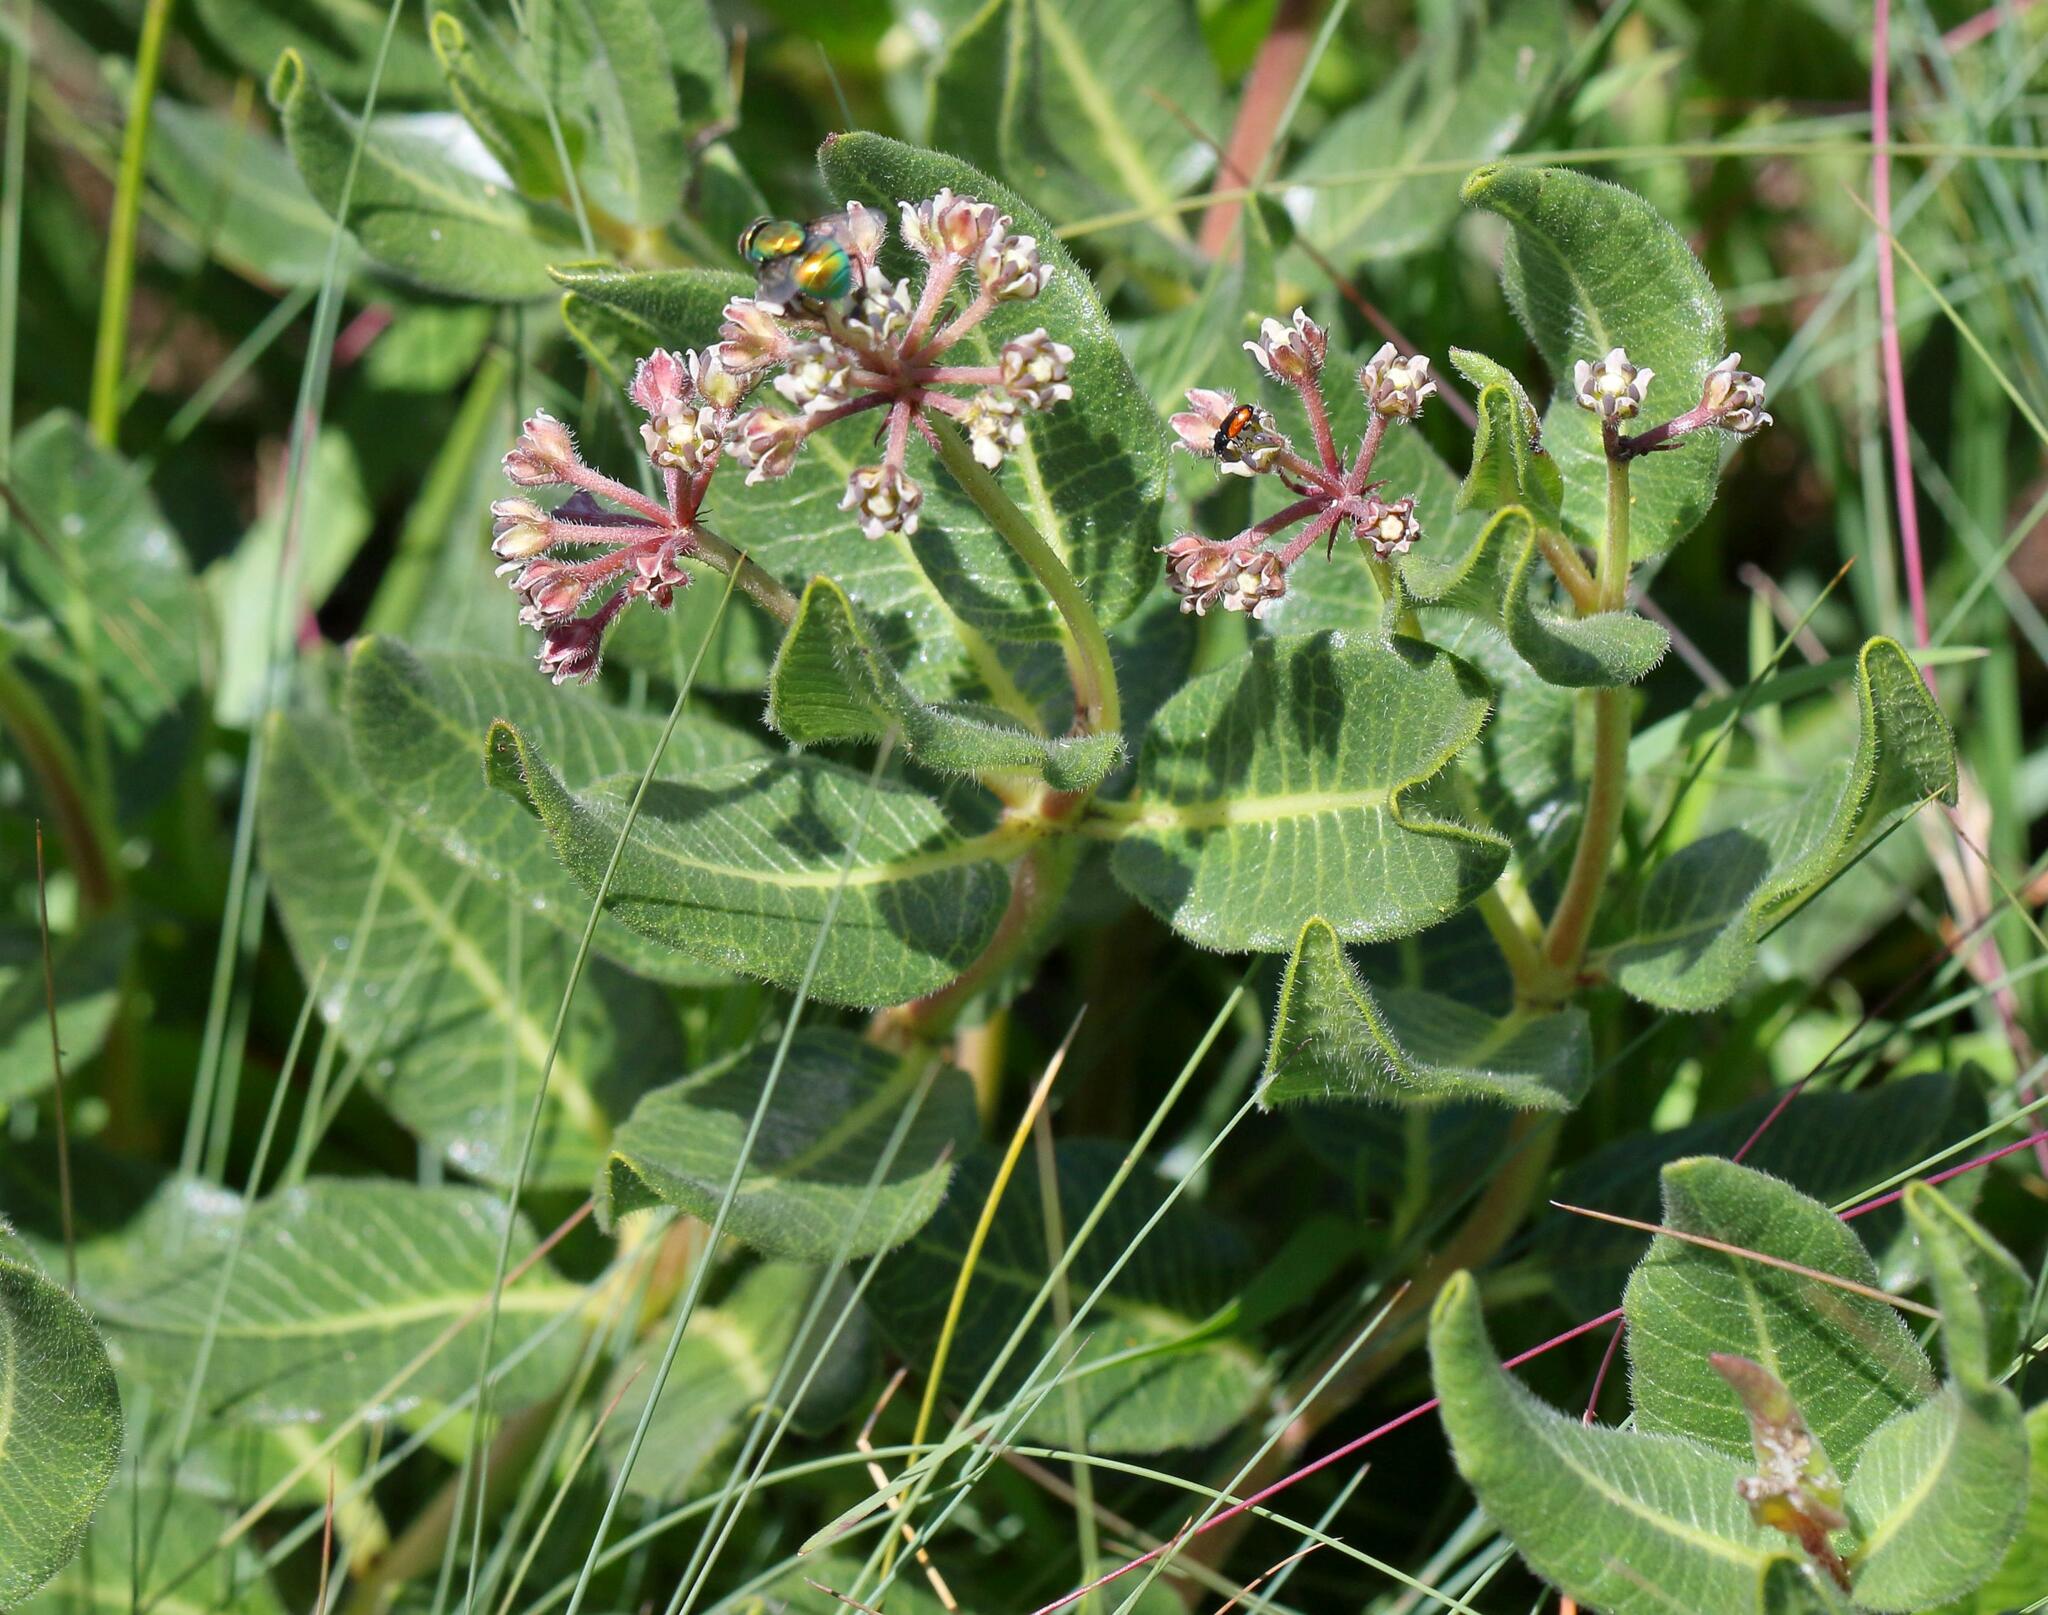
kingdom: Plantae
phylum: Tracheophyta
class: Magnoliopsida
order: Gentianales
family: Apocynaceae
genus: Xysmalobium
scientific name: Xysmalobium parviflorum
